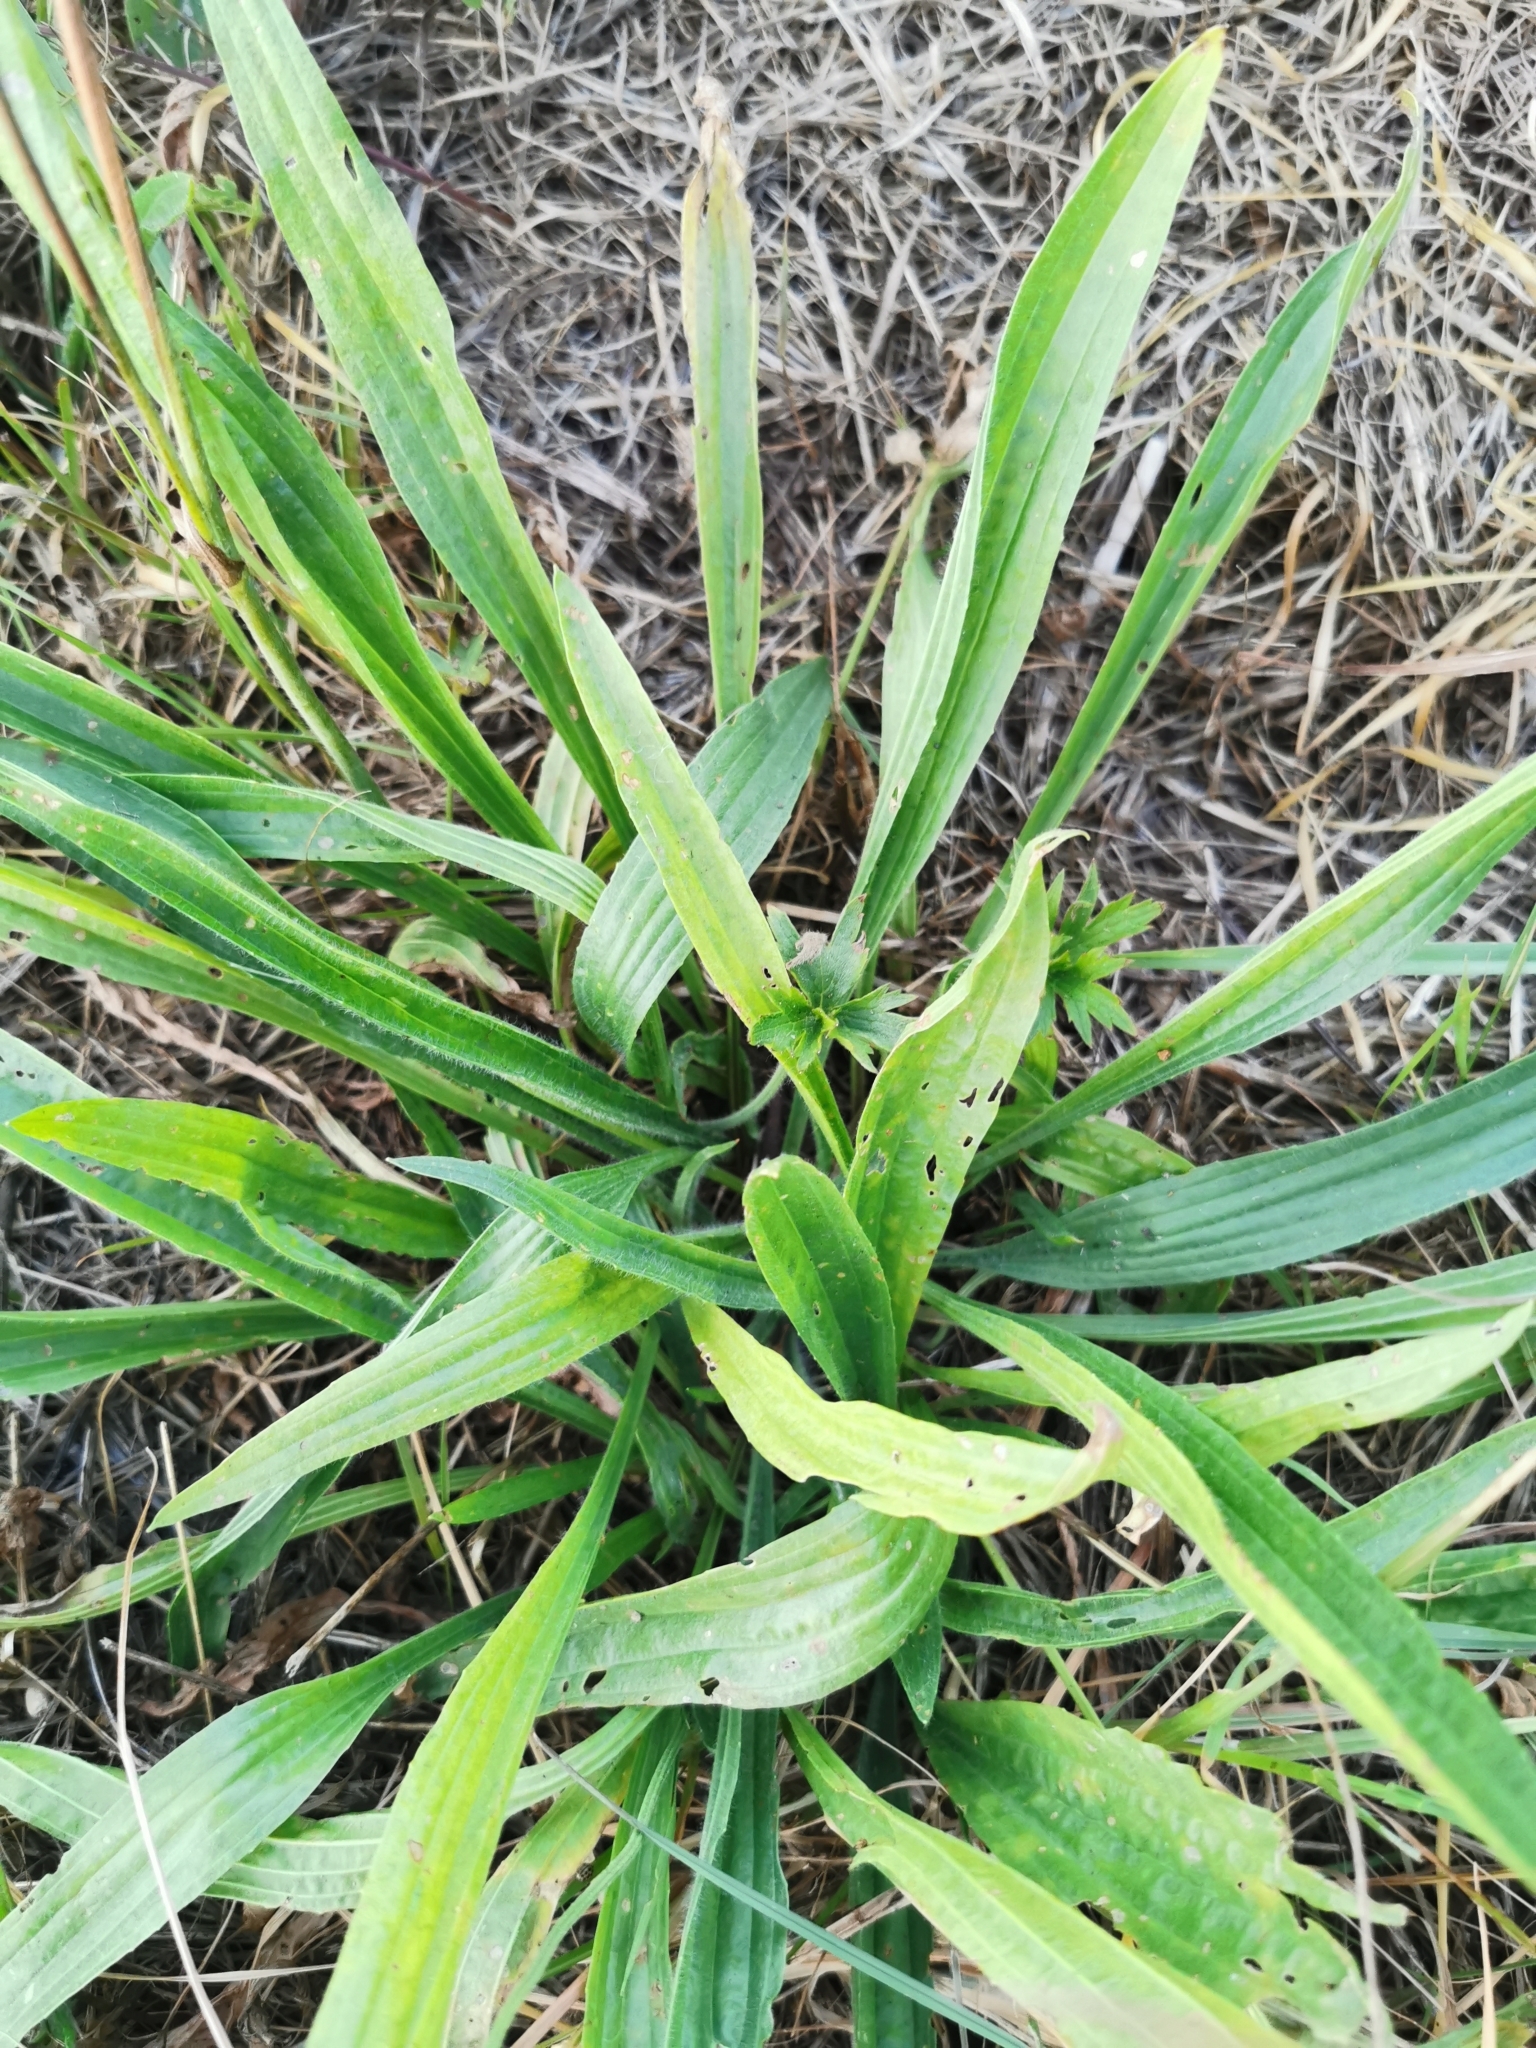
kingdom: Plantae
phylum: Tracheophyta
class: Magnoliopsida
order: Lamiales
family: Plantaginaceae
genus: Plantago
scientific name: Plantago lanceolata
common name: Ribwort plantain
